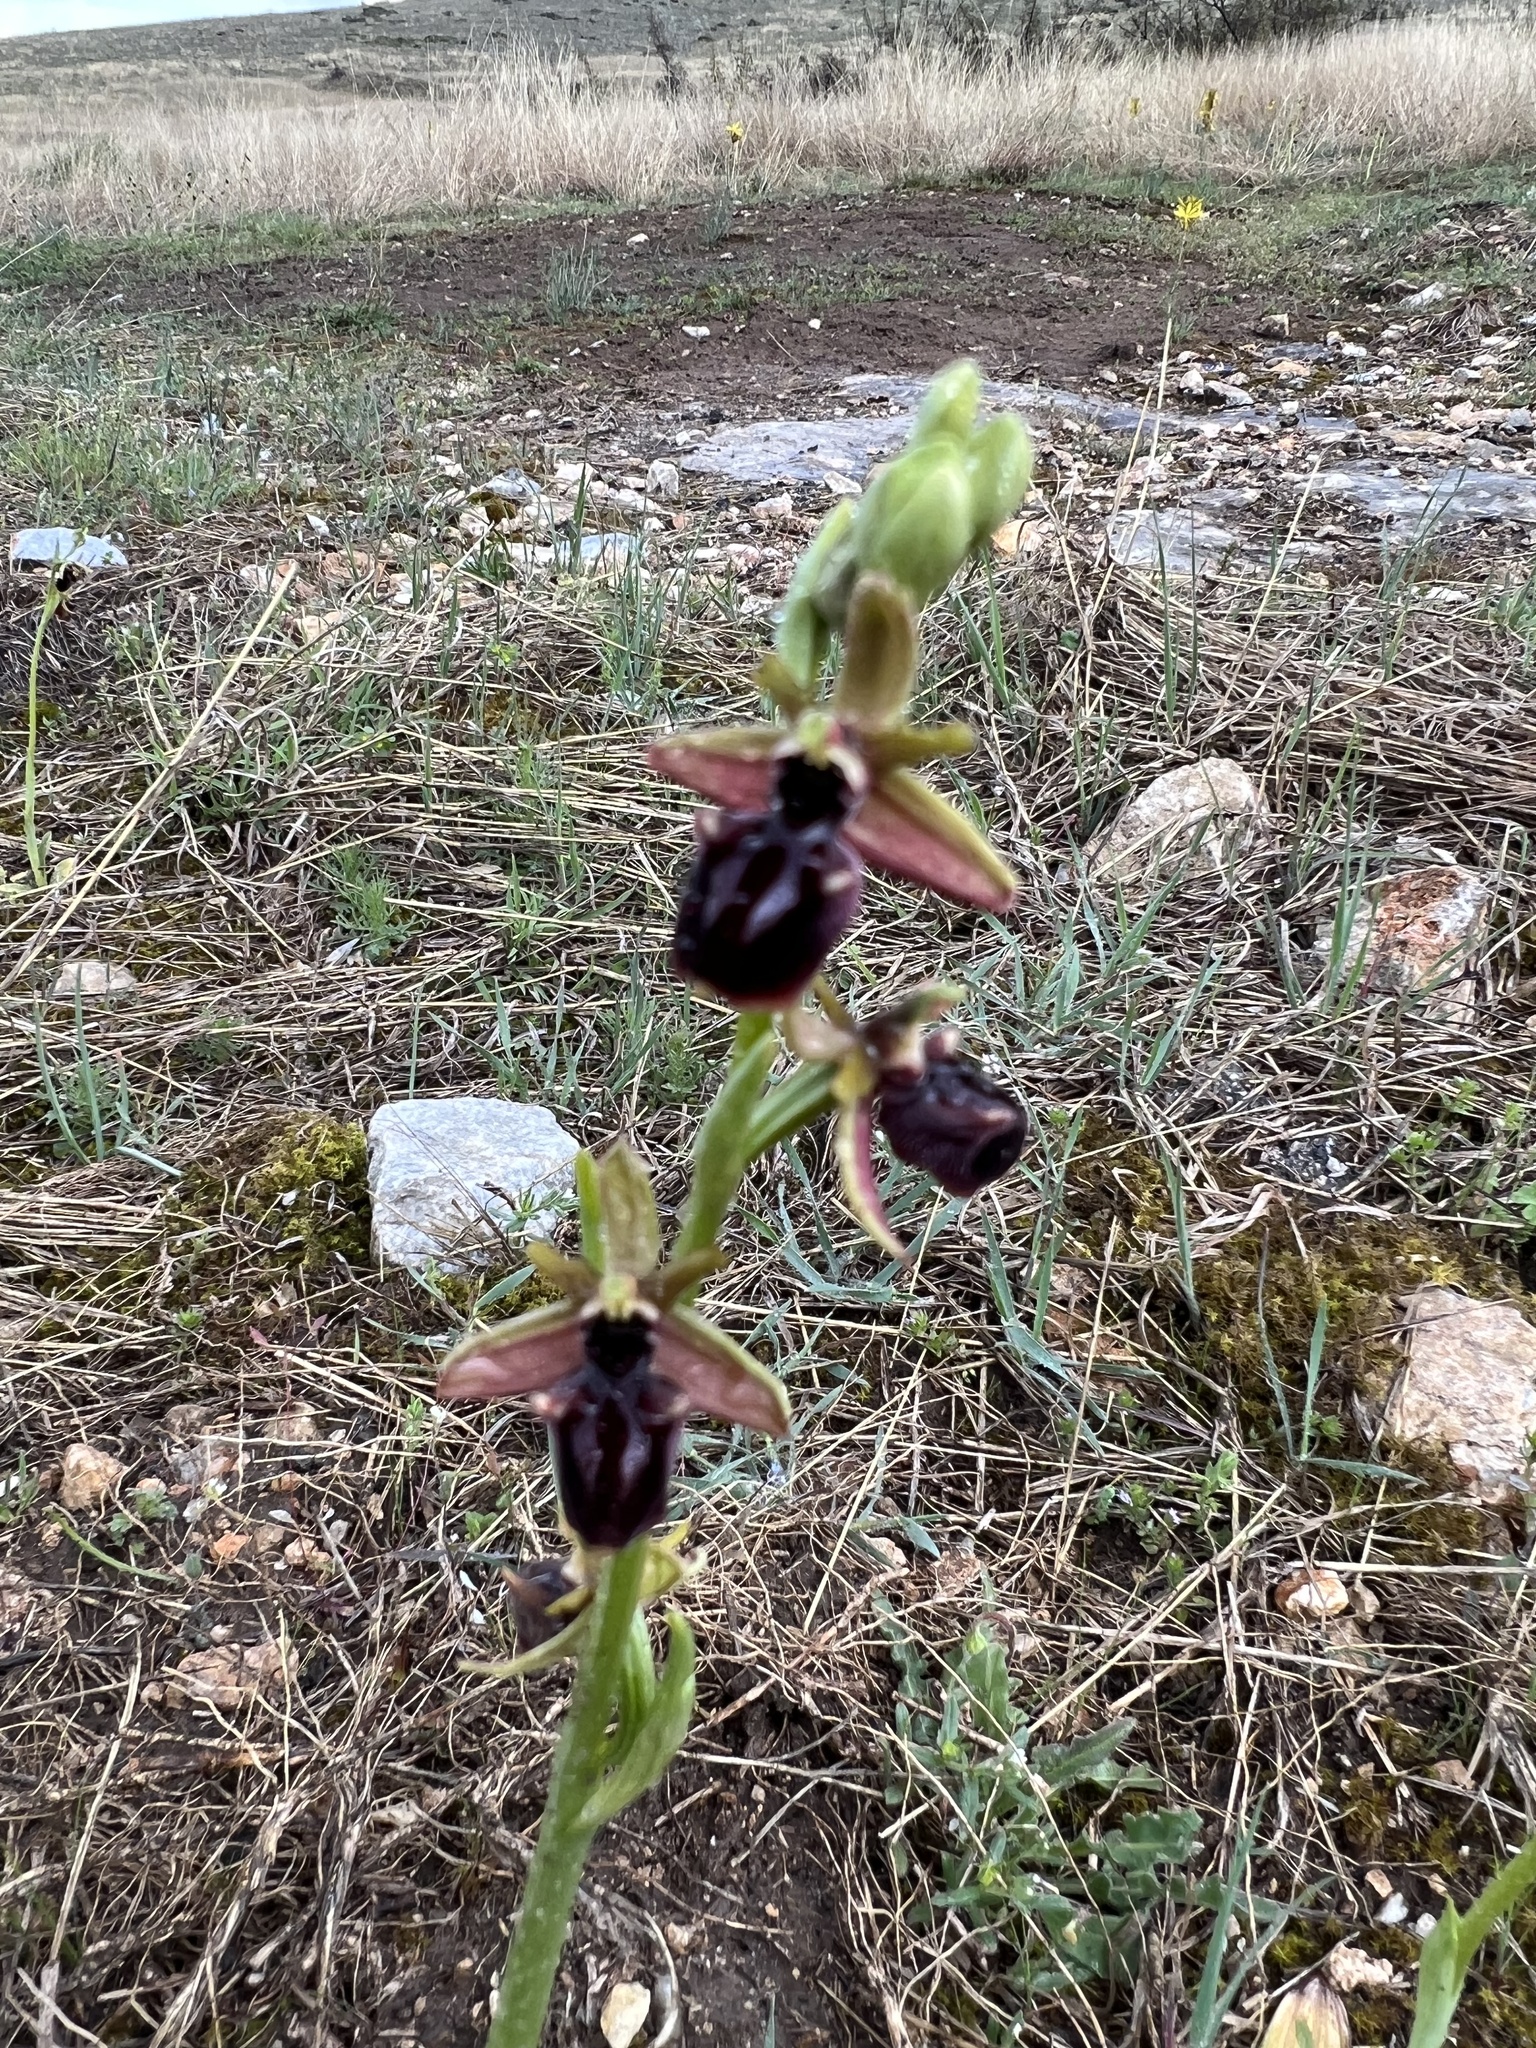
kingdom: Plantae
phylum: Tracheophyta
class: Liliopsida
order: Asparagales
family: Orchidaceae
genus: Ophrys
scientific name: Ophrys sphegodes
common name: Early spider-orchid
